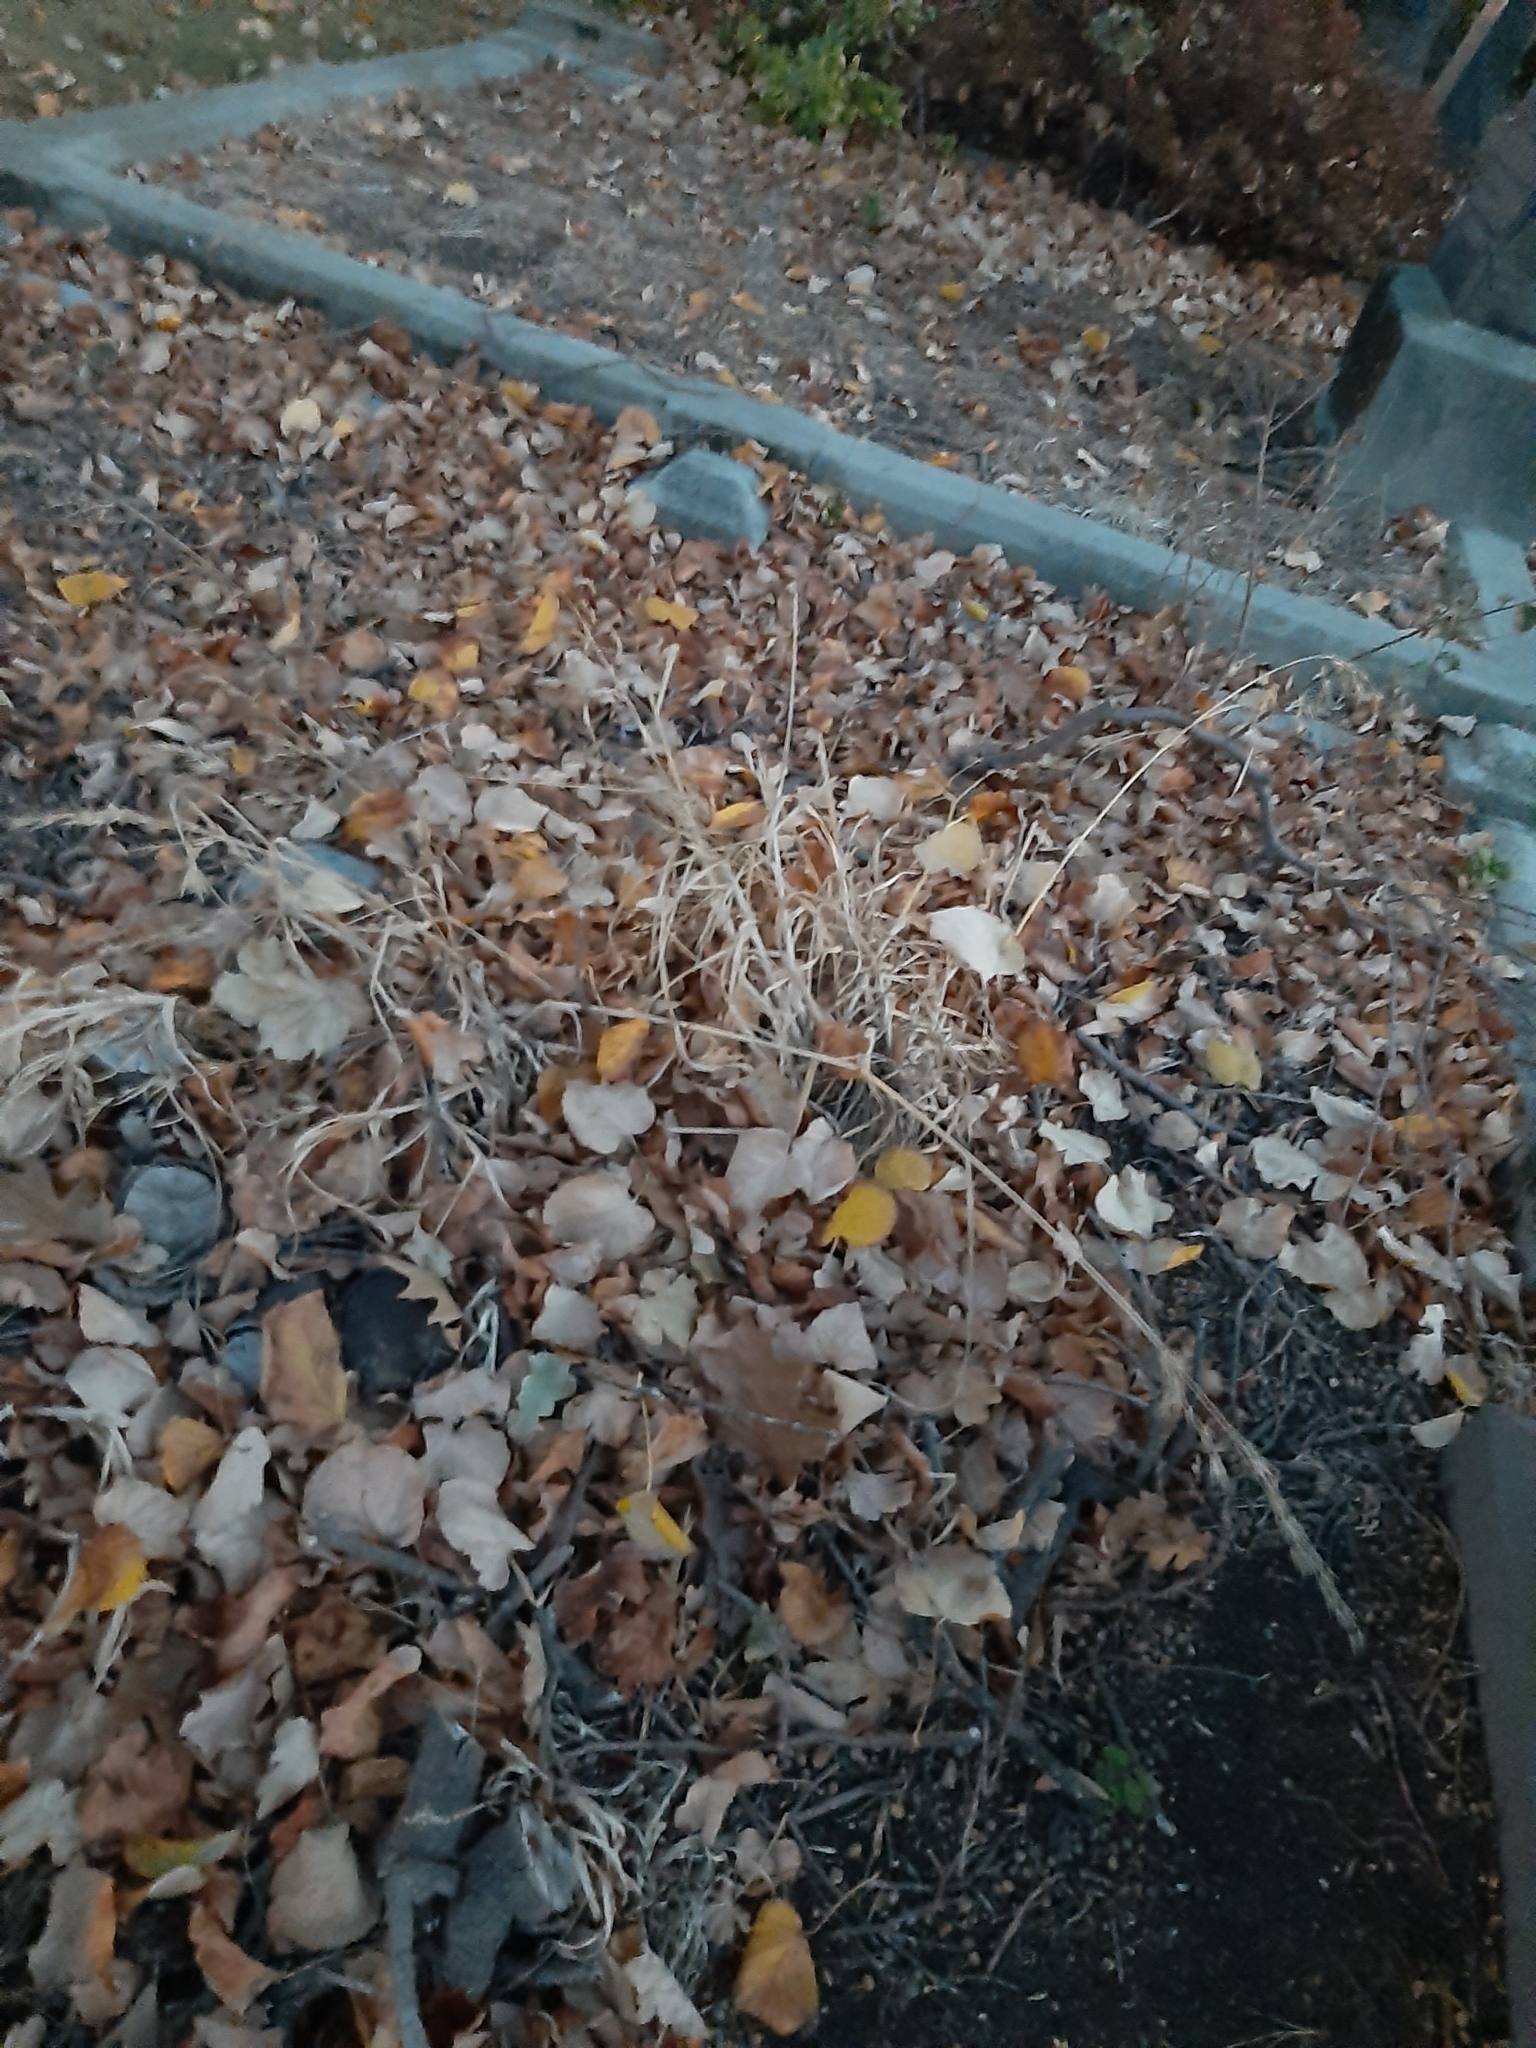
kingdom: Plantae
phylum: Tracheophyta
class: Liliopsida
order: Poales
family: Poaceae
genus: Bromus
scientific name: Bromus catharticus
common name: Rescuegrass
